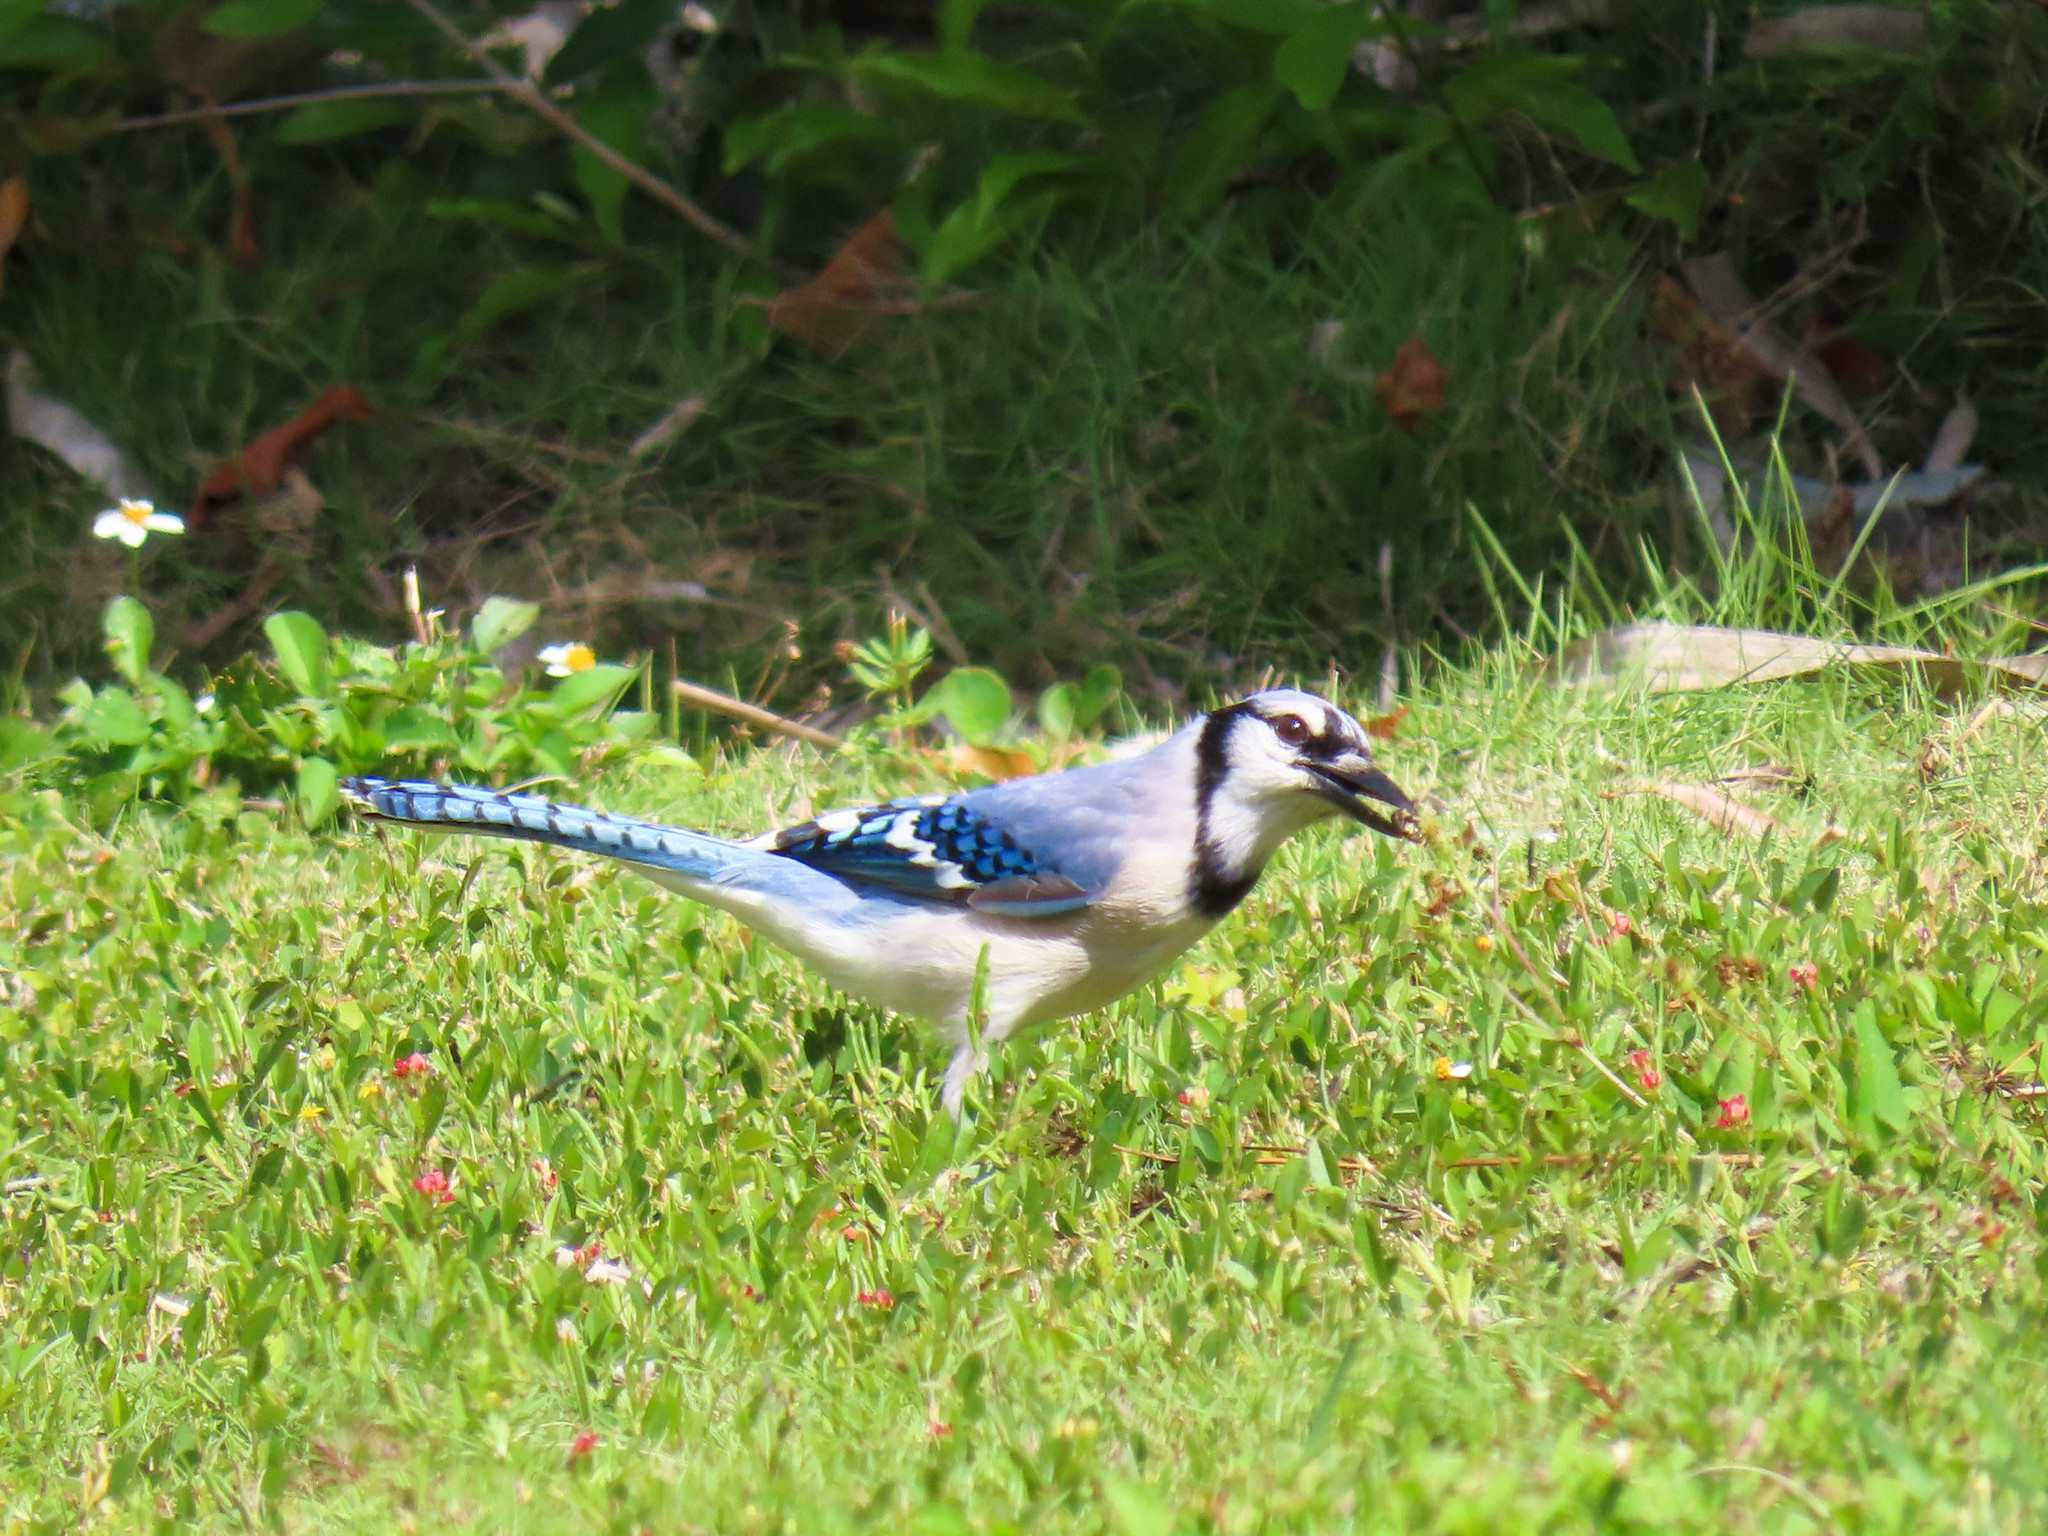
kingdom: Animalia
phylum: Chordata
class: Aves
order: Passeriformes
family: Corvidae
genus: Cyanocitta
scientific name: Cyanocitta cristata
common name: Blue jay
